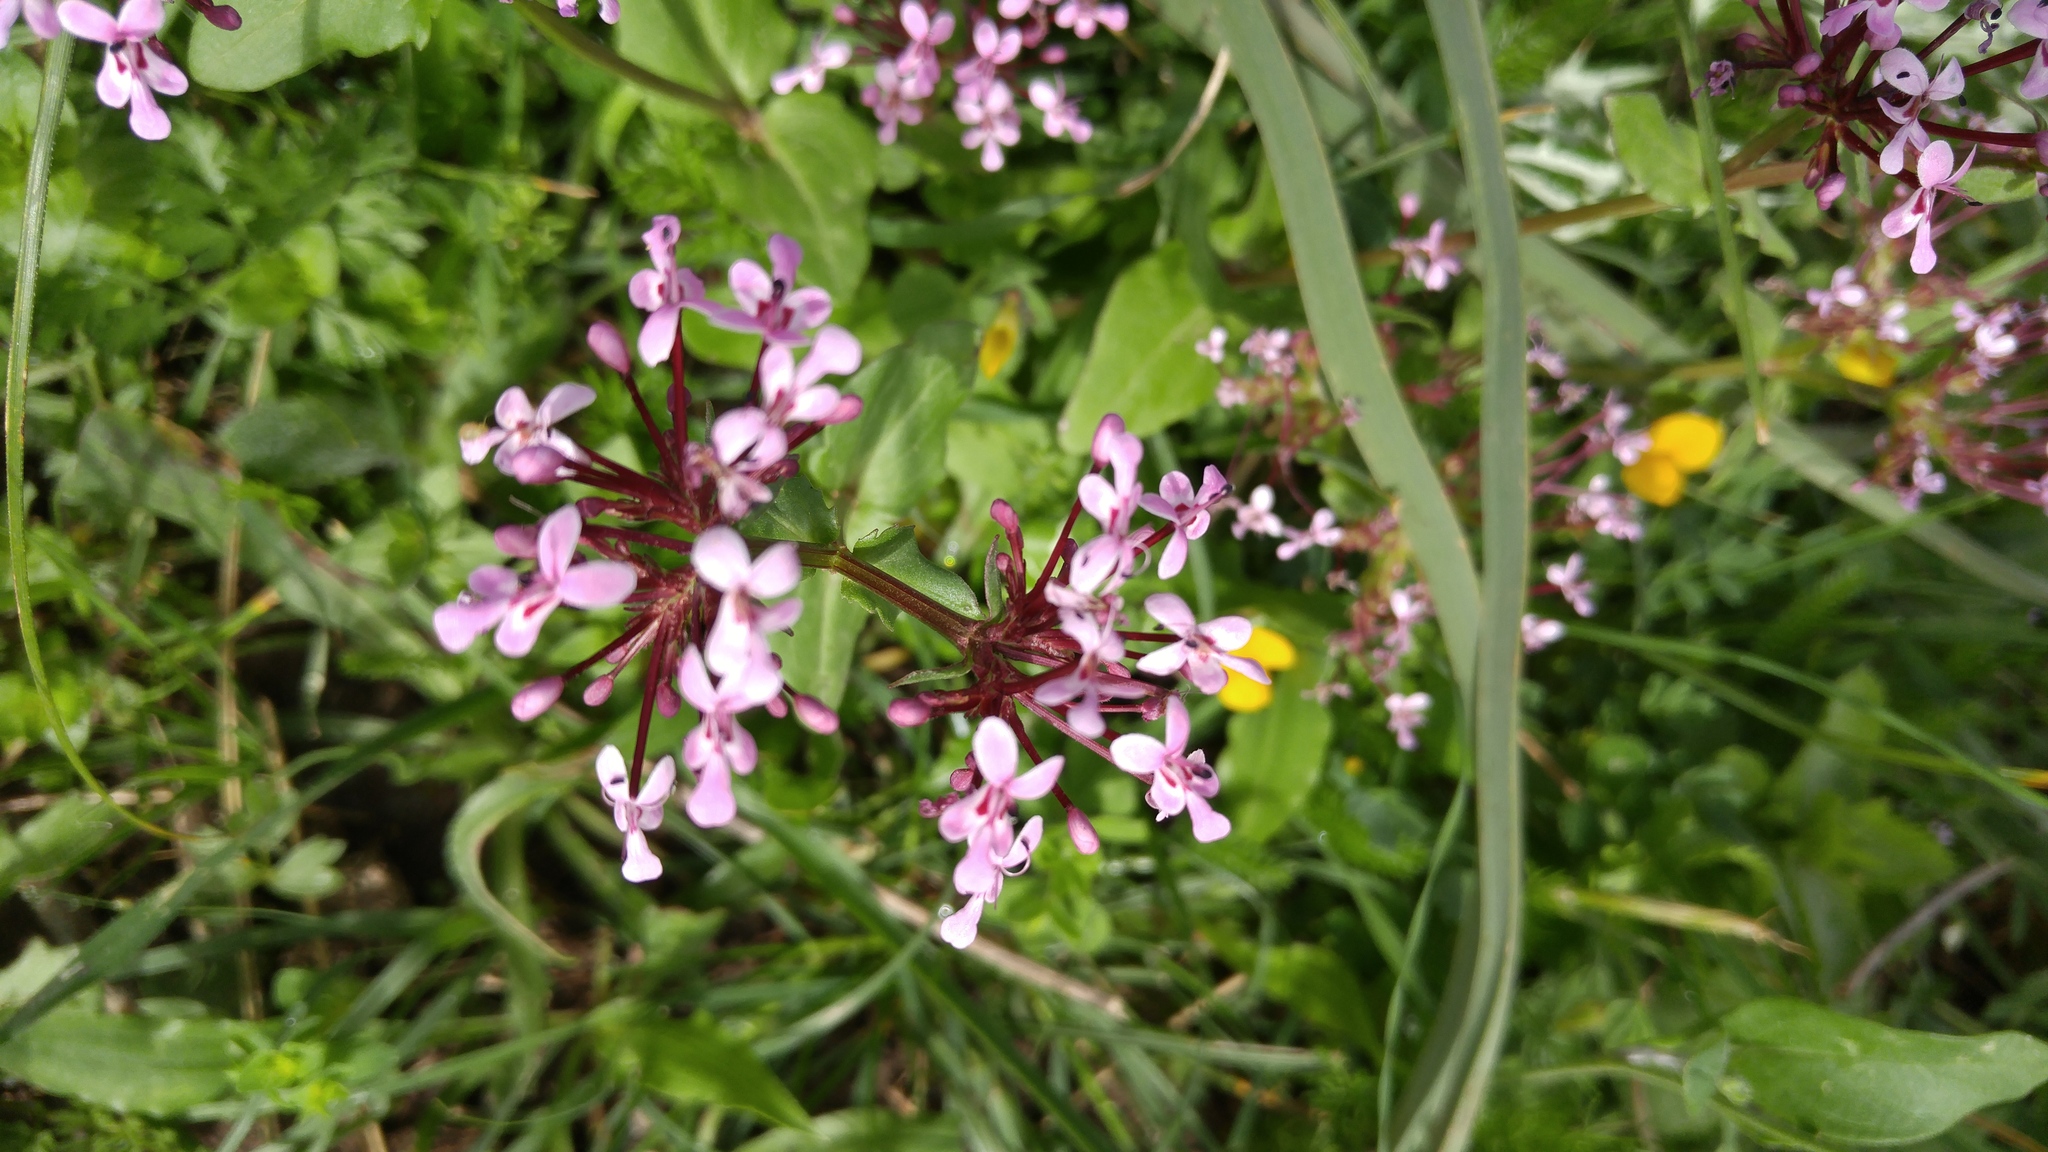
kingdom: Plantae
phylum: Tracheophyta
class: Magnoliopsida
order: Dipsacales
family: Caprifoliaceae
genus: Fedia
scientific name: Fedia graciliflora
